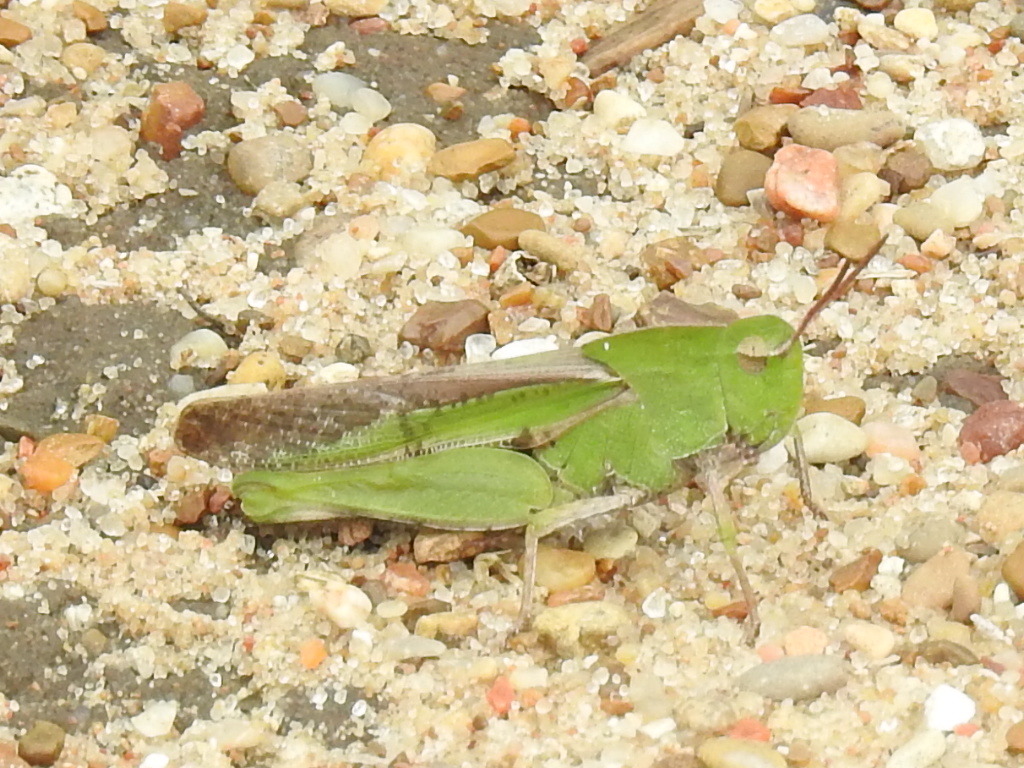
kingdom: Animalia
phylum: Arthropoda
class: Insecta
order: Orthoptera
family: Acrididae
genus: Chortophaga
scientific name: Chortophaga viridifasciata
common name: Green-striped grasshopper
